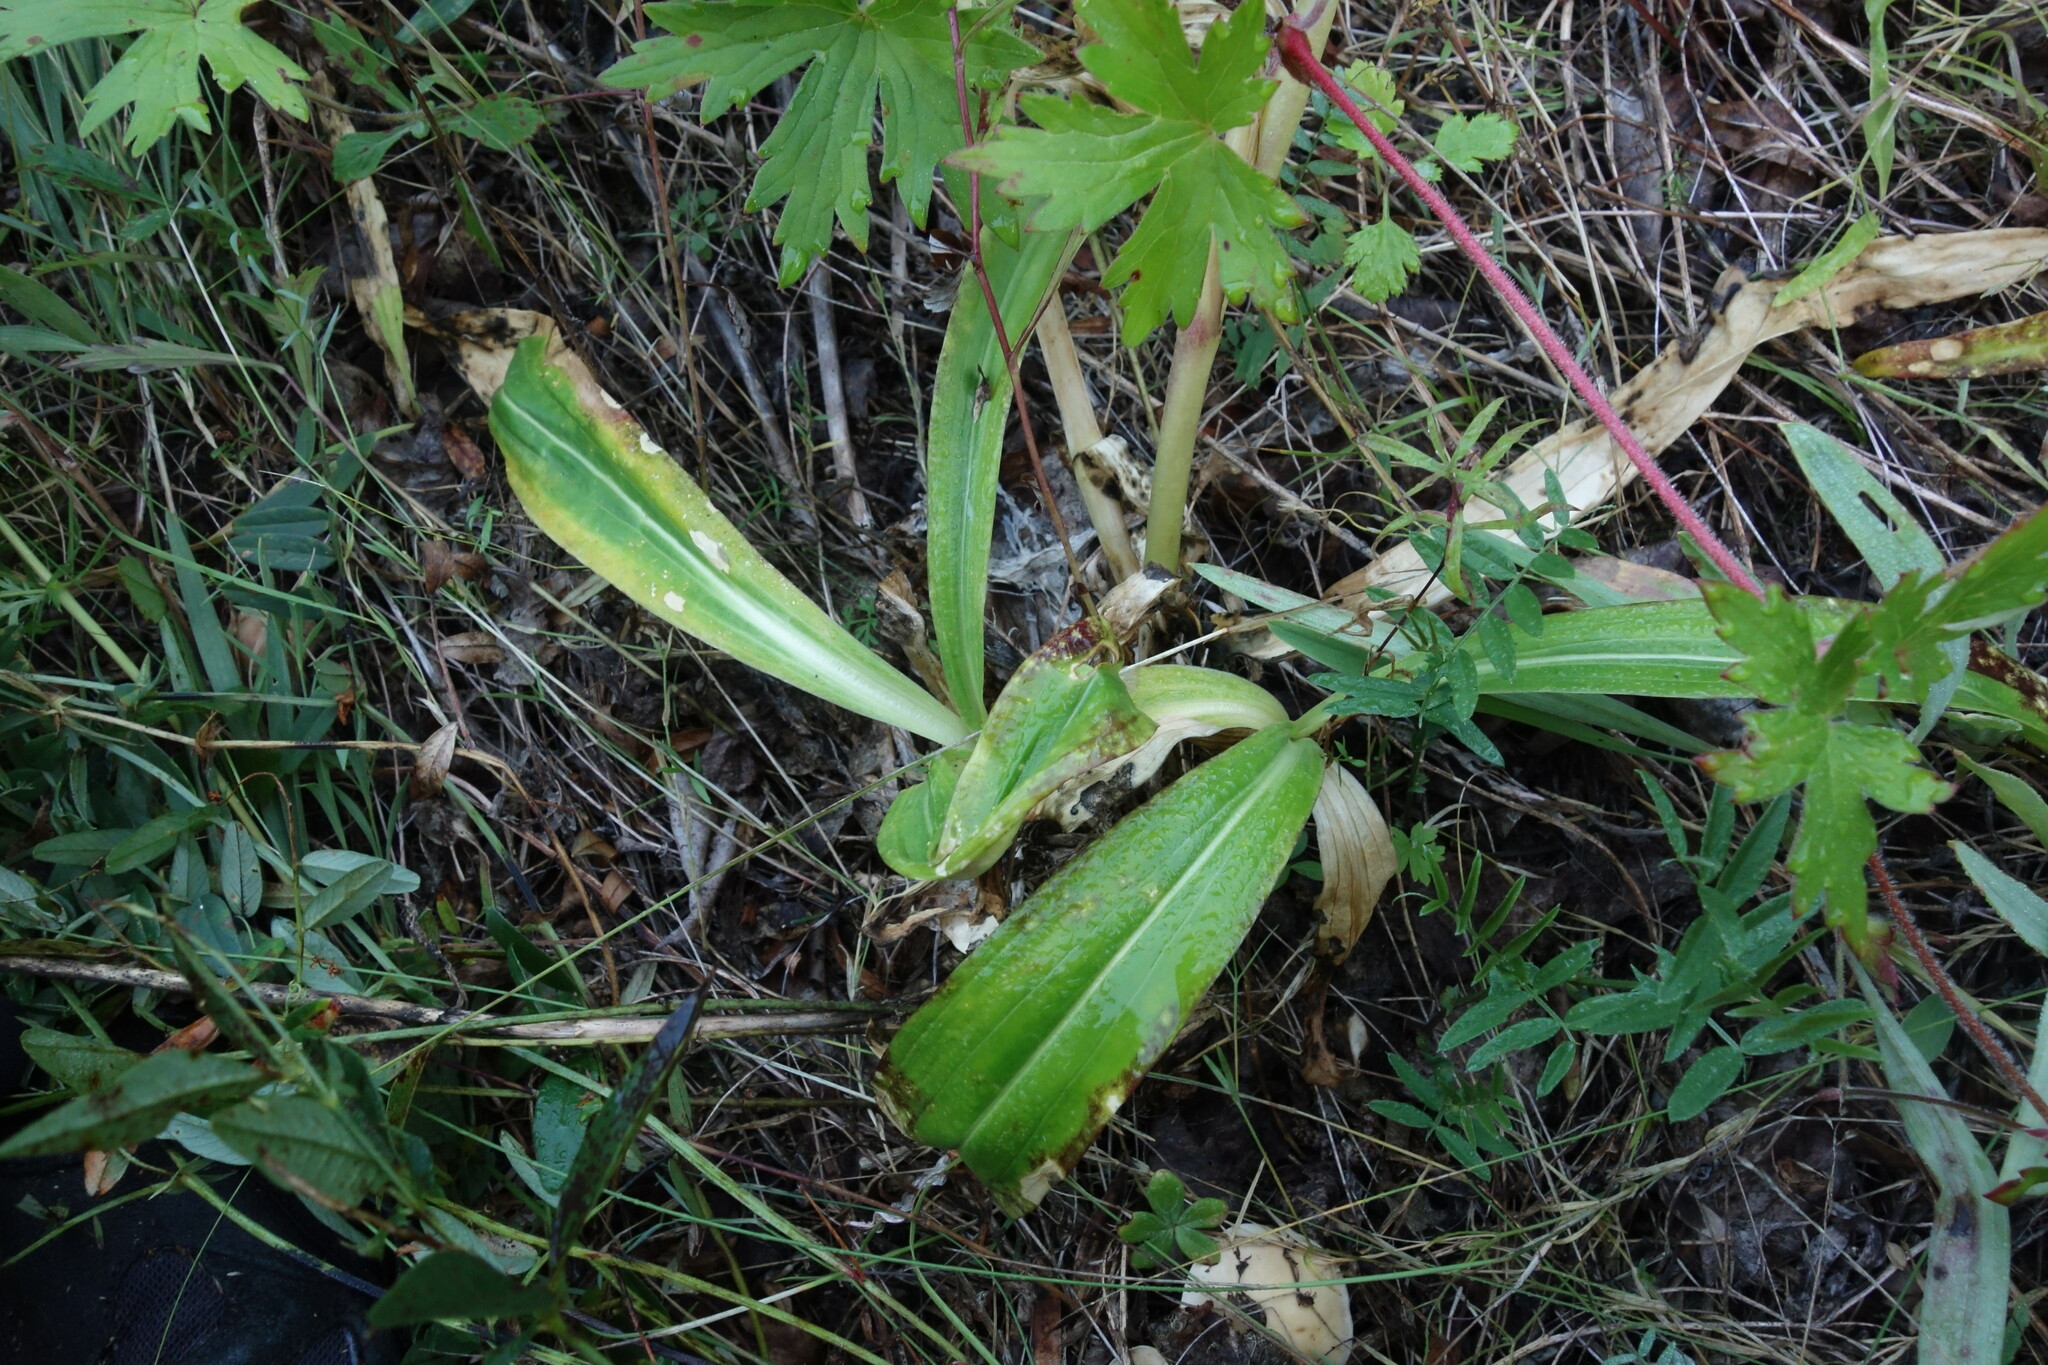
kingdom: Plantae
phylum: Tracheophyta
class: Magnoliopsida
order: Gentianales
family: Gentianaceae
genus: Gentiana
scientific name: Gentiana macrophylla
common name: Large-leaf gentian
